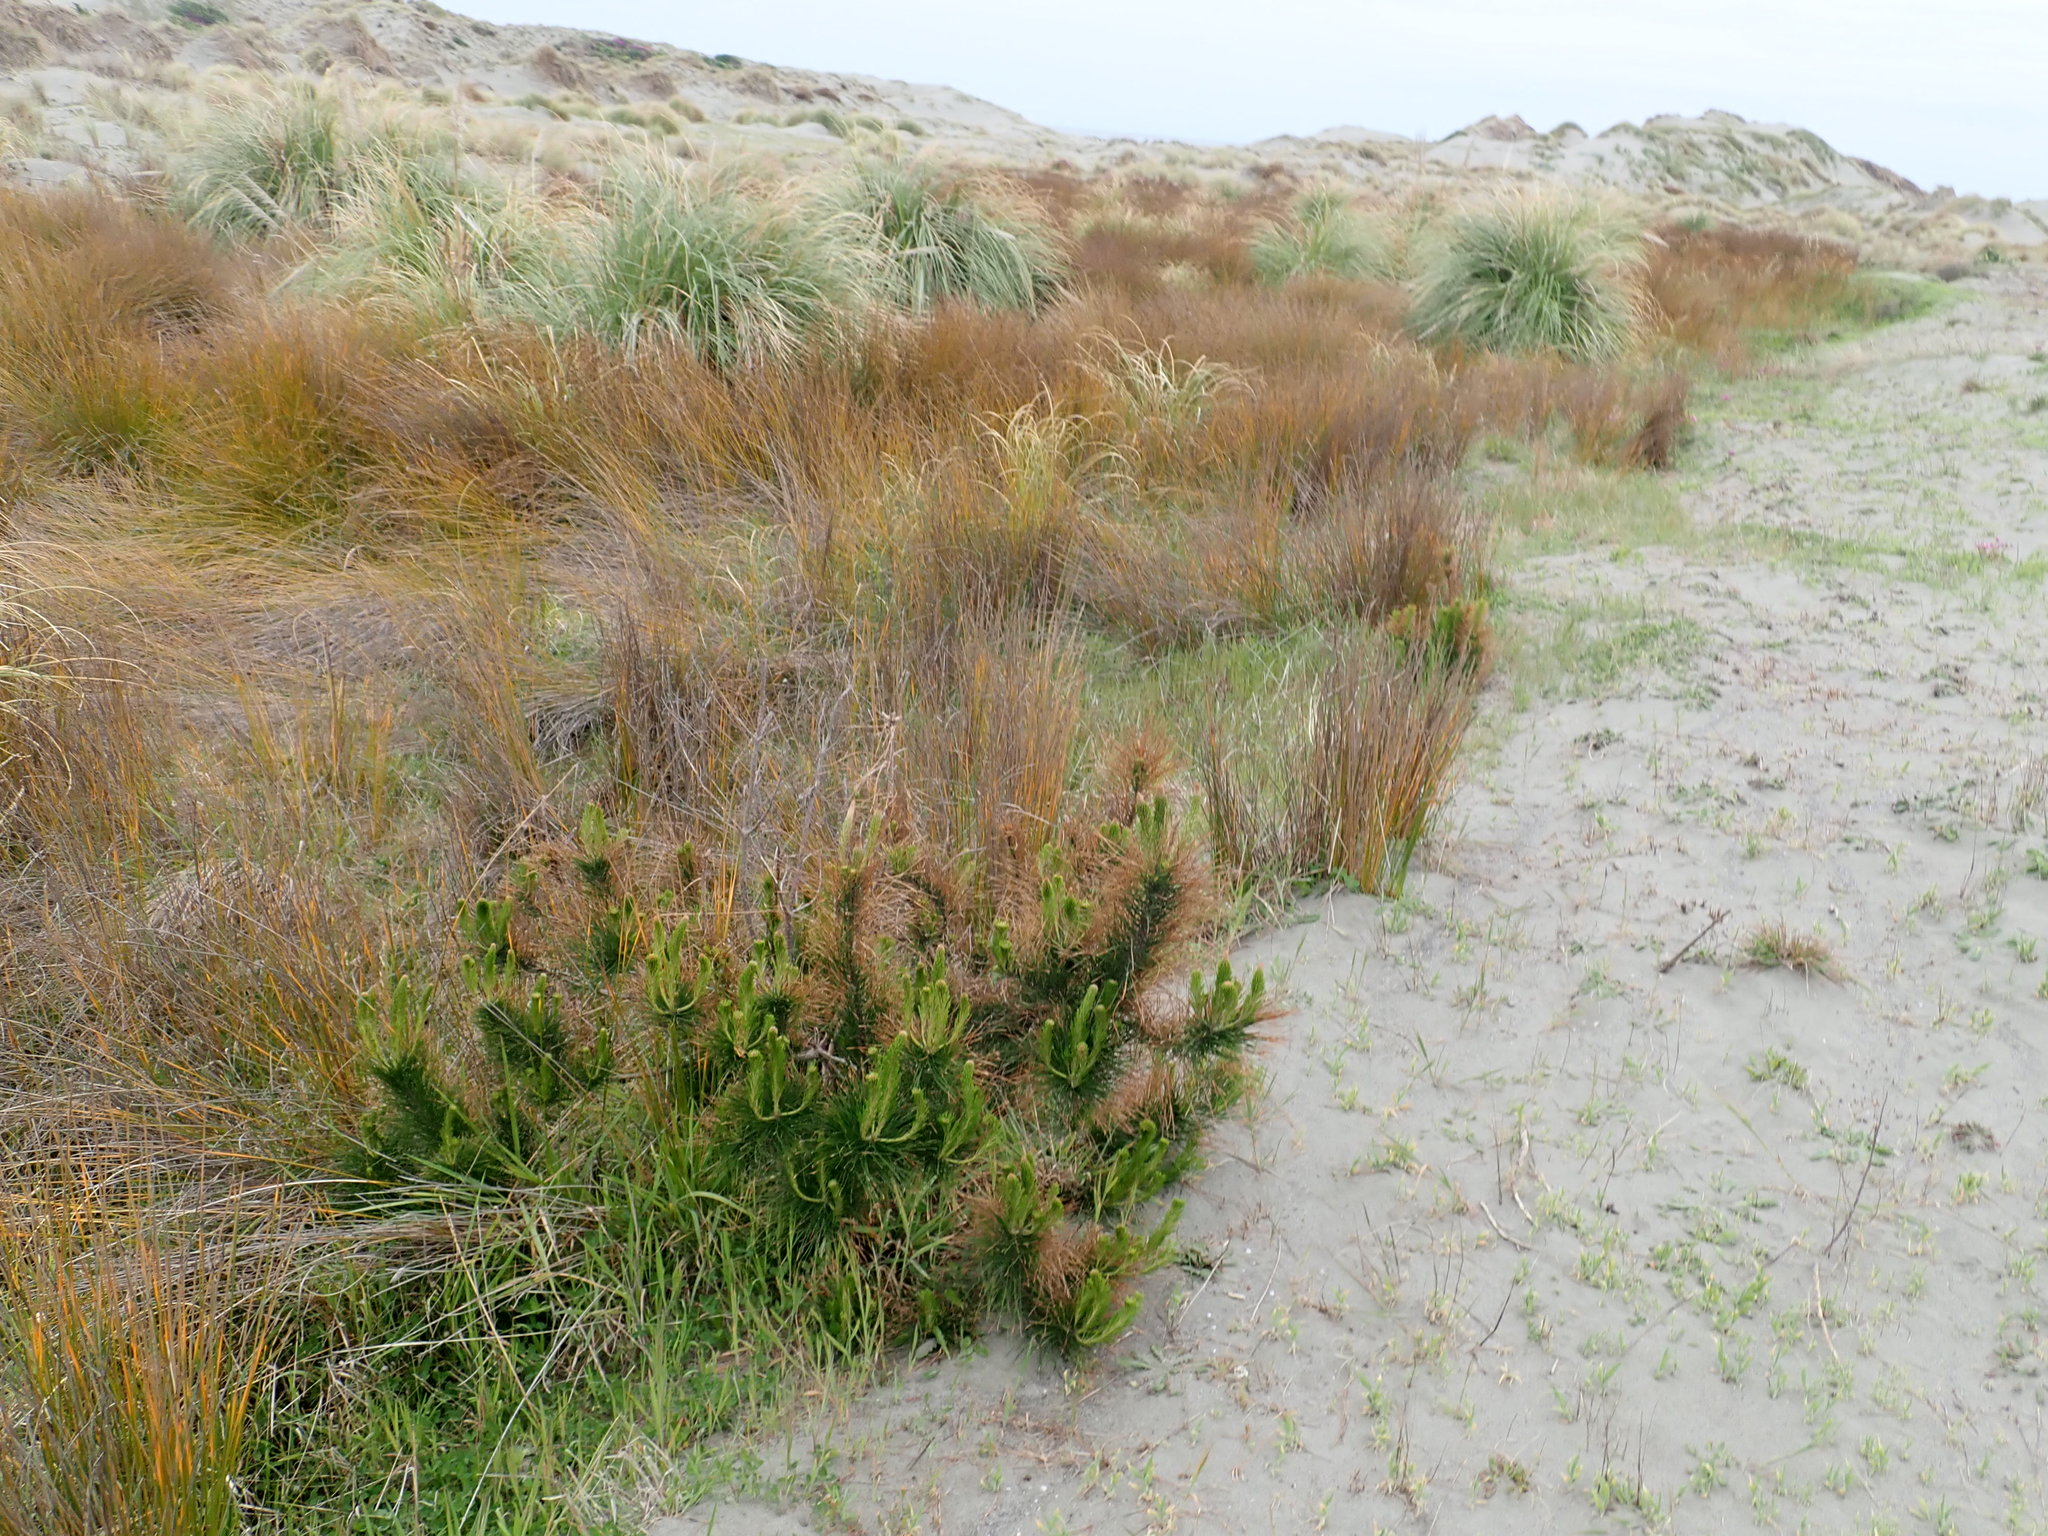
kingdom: Plantae
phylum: Tracheophyta
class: Pinopsida
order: Pinales
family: Pinaceae
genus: Pinus
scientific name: Pinus radiata
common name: Monterey pine
